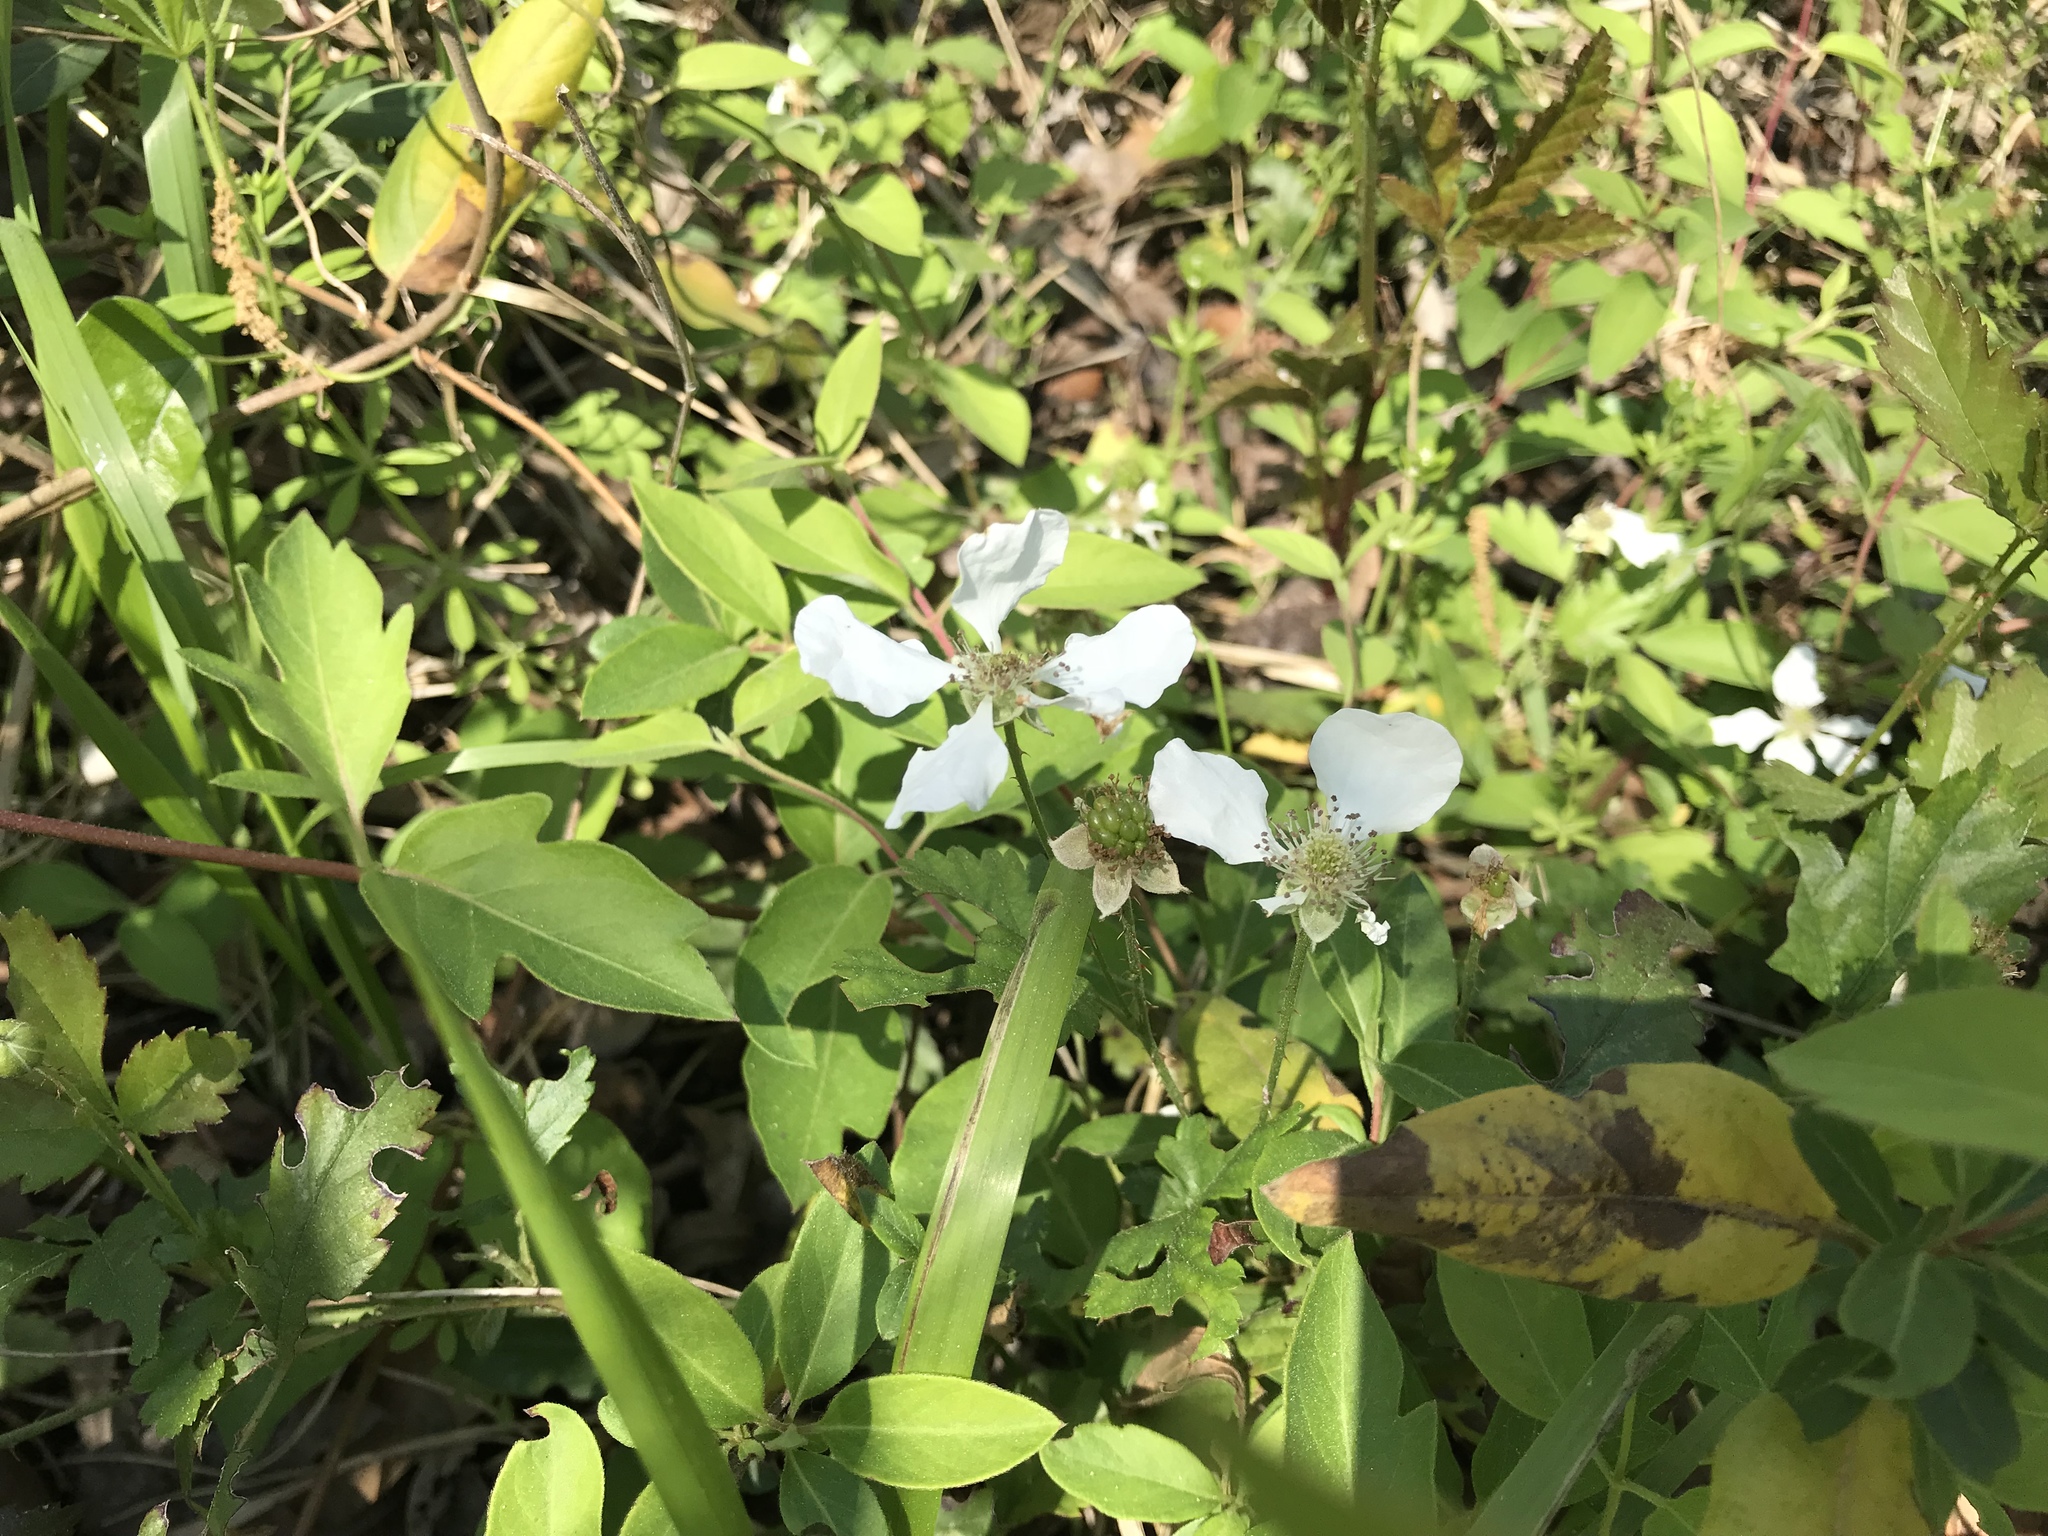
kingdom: Plantae
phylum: Tracheophyta
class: Magnoliopsida
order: Rosales
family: Rosaceae
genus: Rubus
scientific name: Rubus trivialis
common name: Southern dewberry
